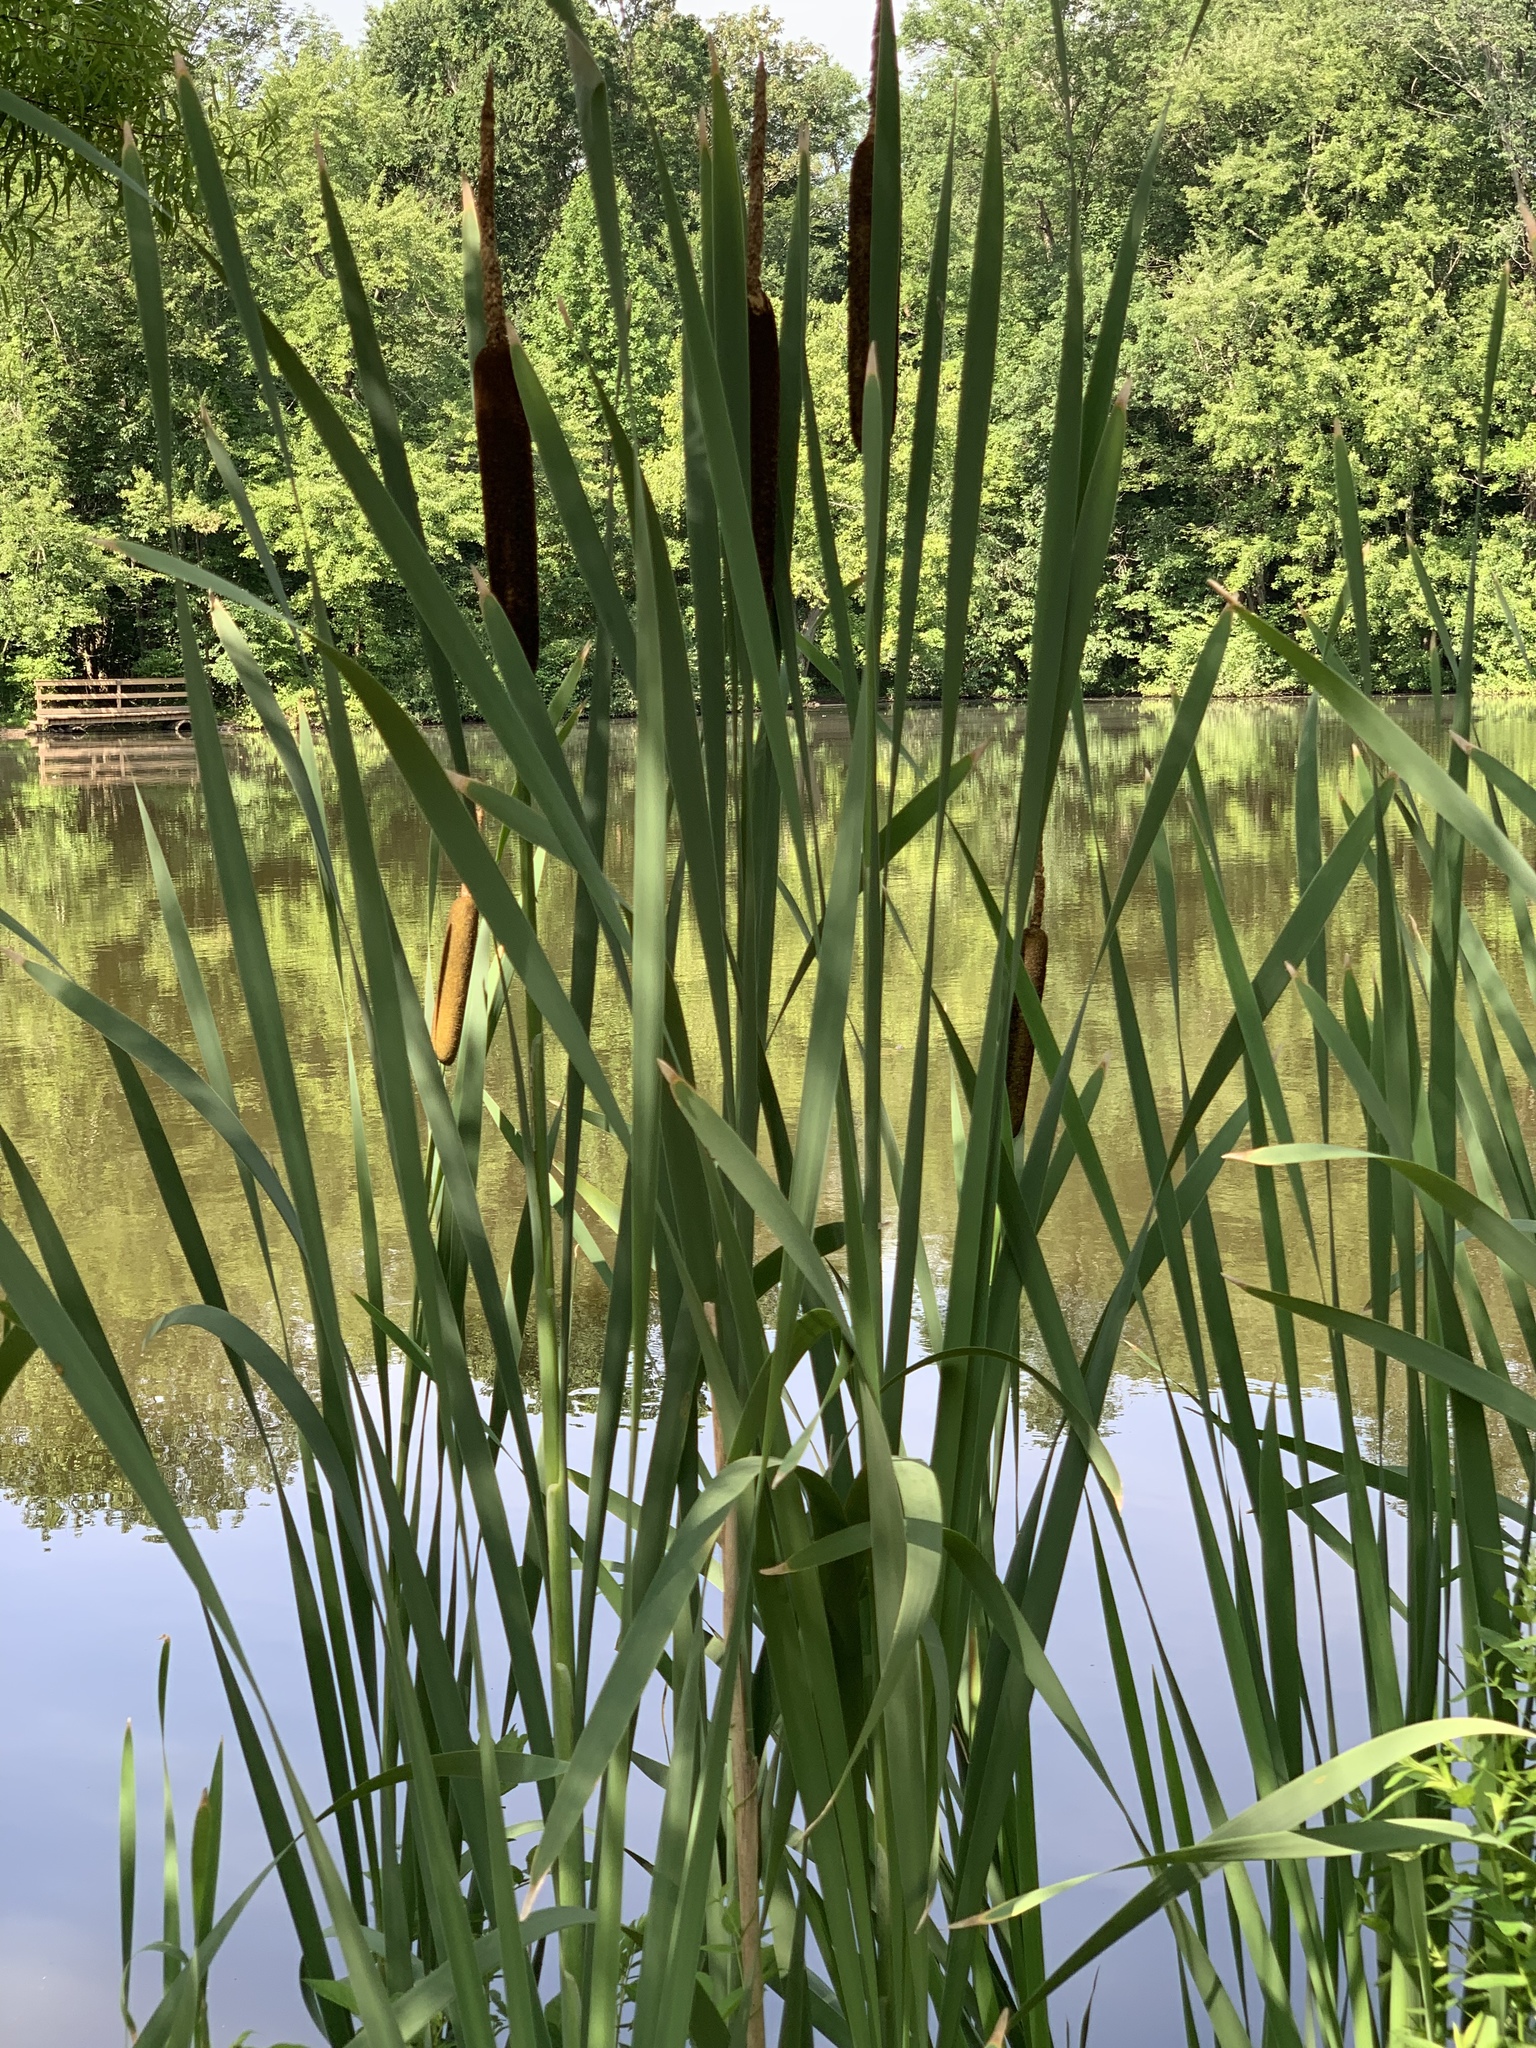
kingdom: Plantae
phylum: Tracheophyta
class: Liliopsida
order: Poales
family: Typhaceae
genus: Typha
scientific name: Typha latifolia
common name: Broadleaf cattail
